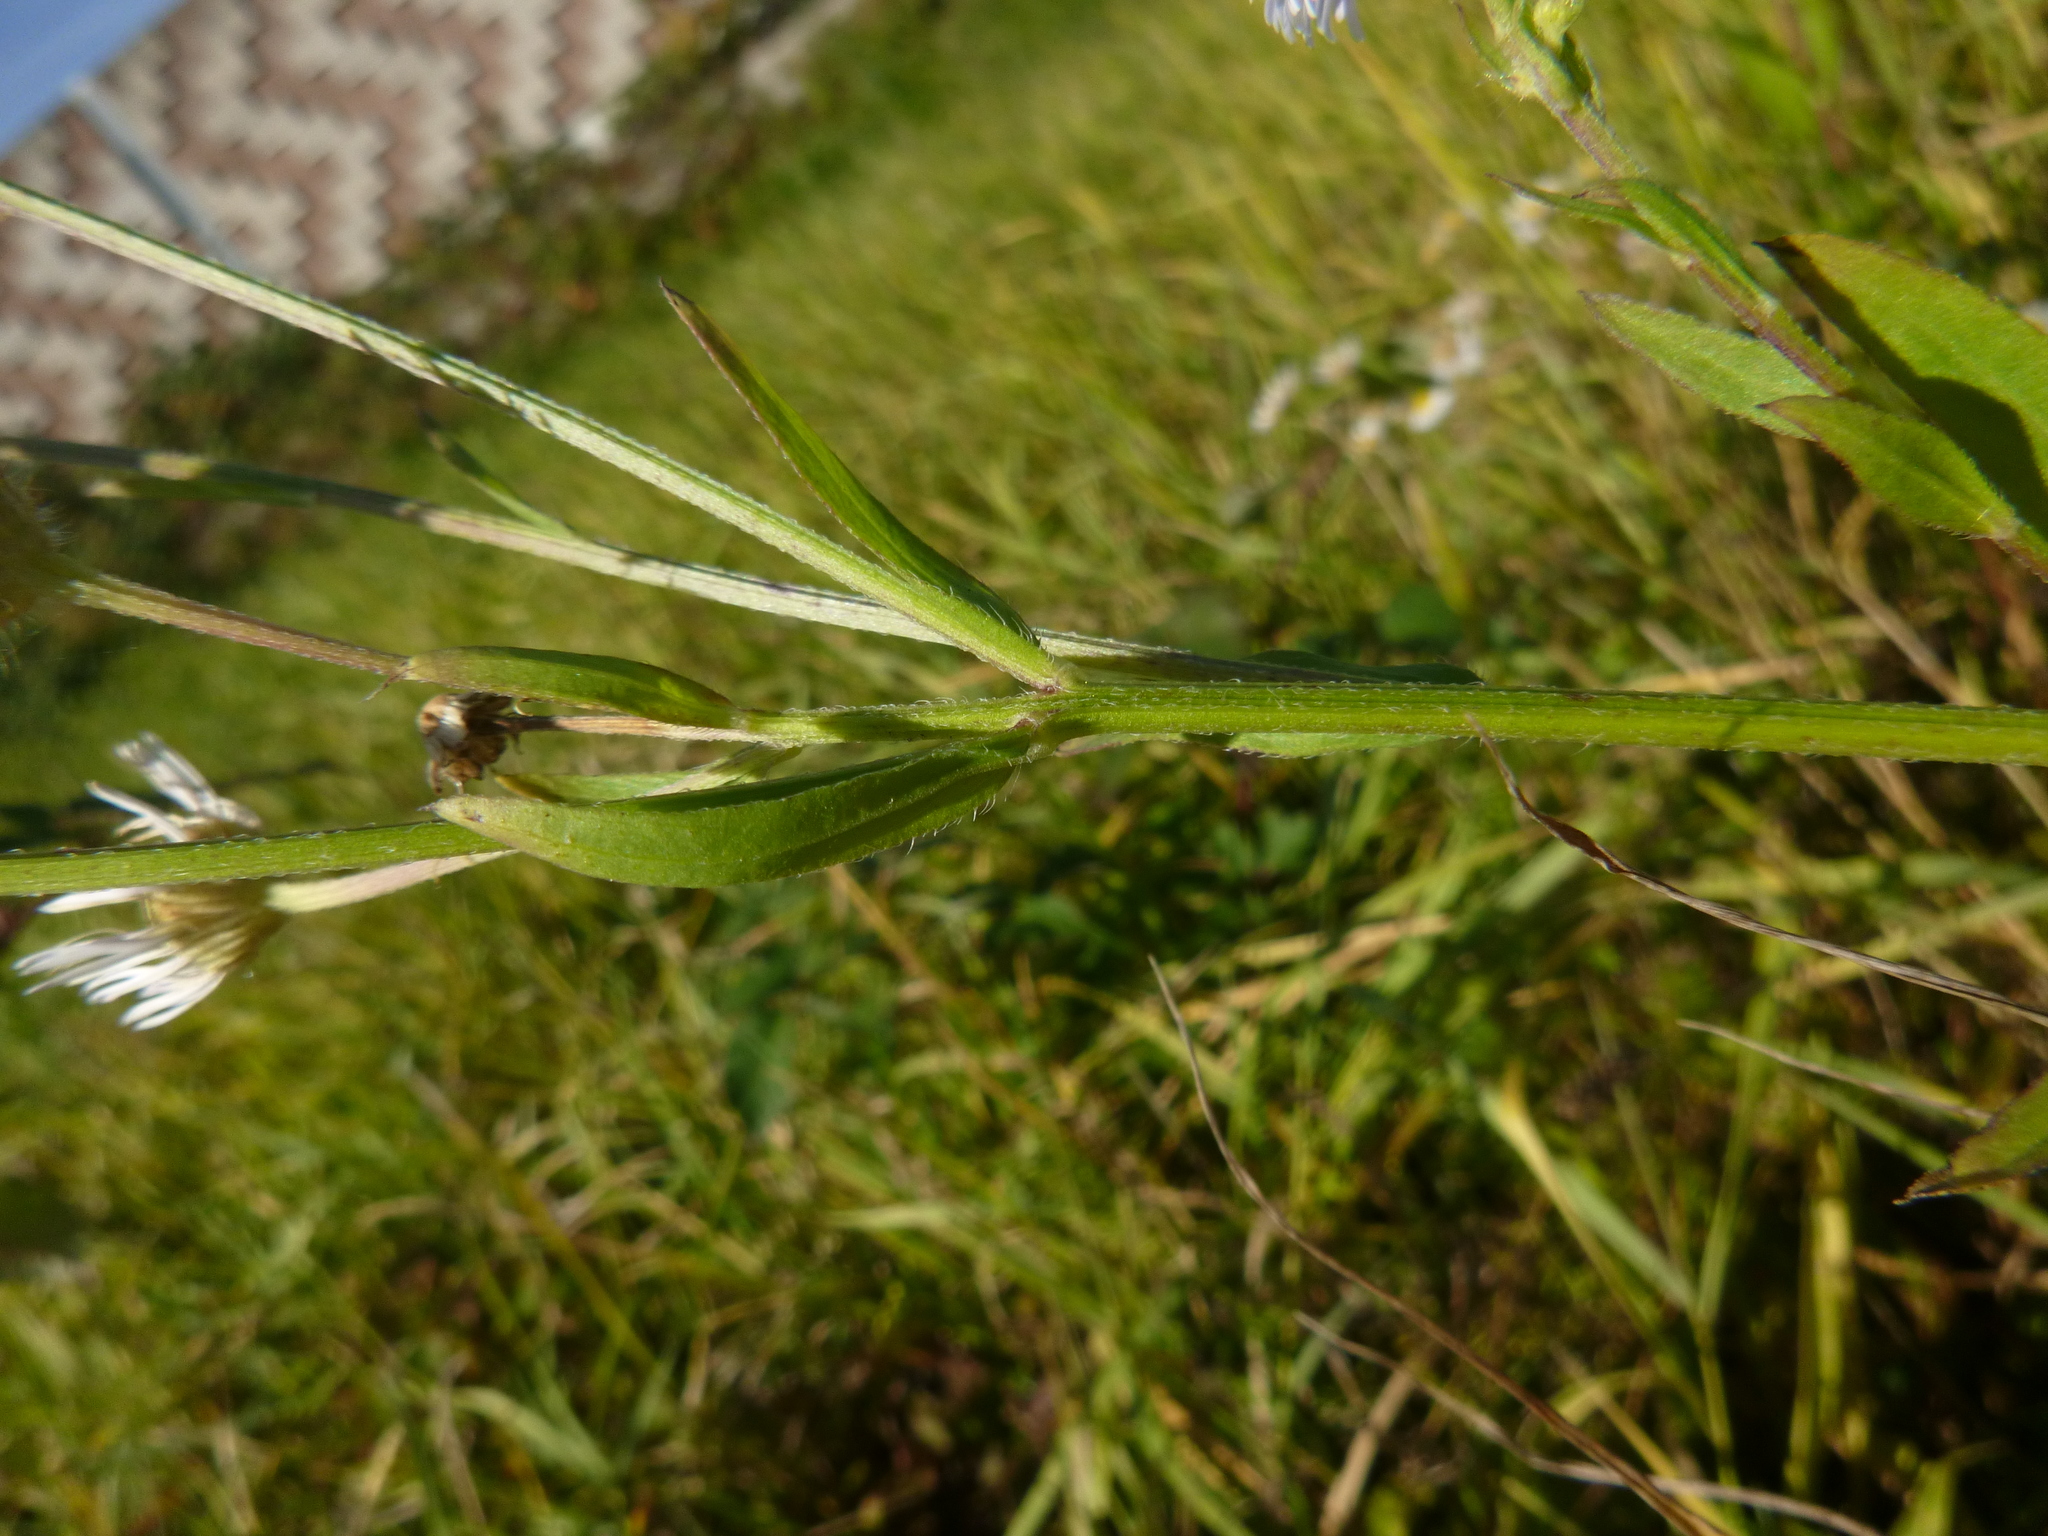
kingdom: Plantae
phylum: Tracheophyta
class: Magnoliopsida
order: Asterales
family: Asteraceae
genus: Erigeron
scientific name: Erigeron annuus
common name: Tall fleabane
